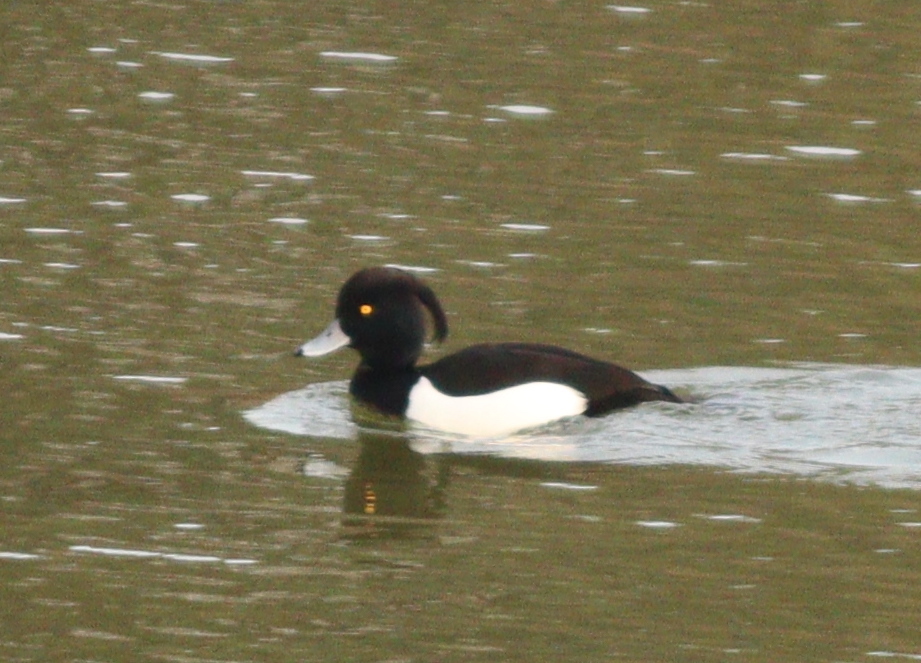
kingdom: Animalia
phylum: Chordata
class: Aves
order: Anseriformes
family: Anatidae
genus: Aythya
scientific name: Aythya fuligula
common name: Tufted duck
